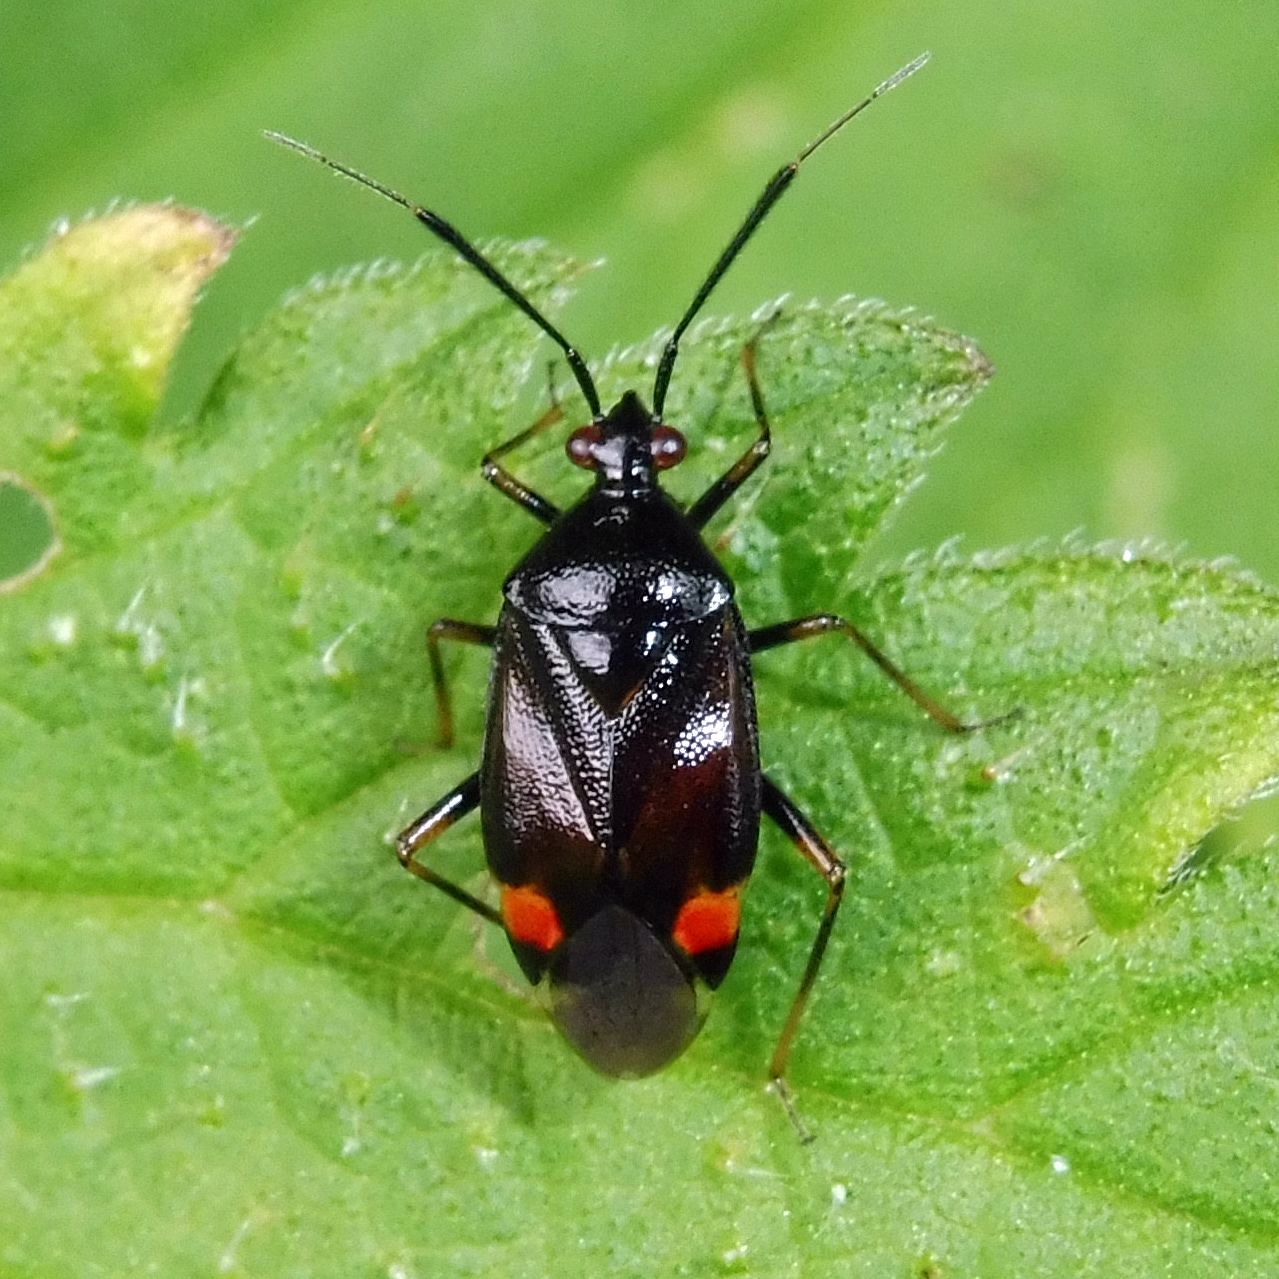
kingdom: Animalia
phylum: Arthropoda
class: Insecta
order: Hemiptera
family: Miridae
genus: Deraeocoris
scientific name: Deraeocoris ruber
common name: Plant bug
